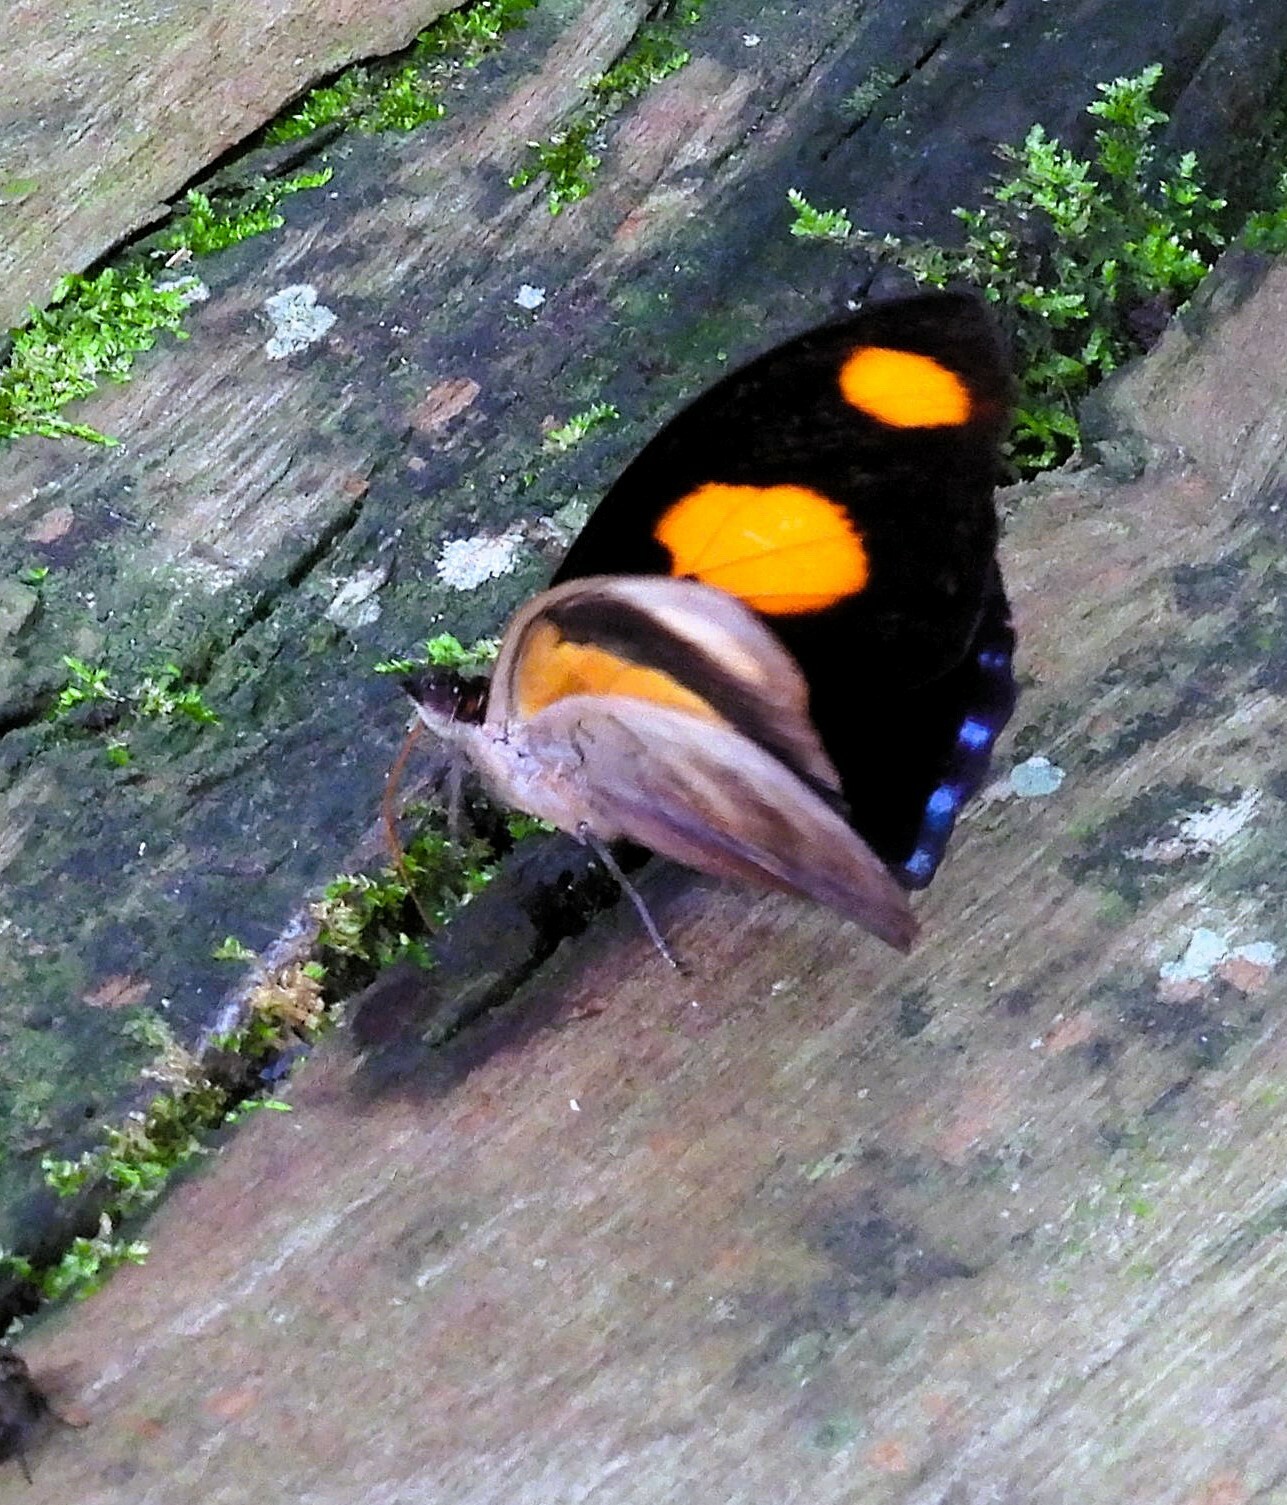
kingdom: Animalia
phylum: Arthropoda
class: Insecta
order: Lepidoptera
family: Nymphalidae
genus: Catonephele
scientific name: Catonephele numilia
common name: Blue-frosted banner
